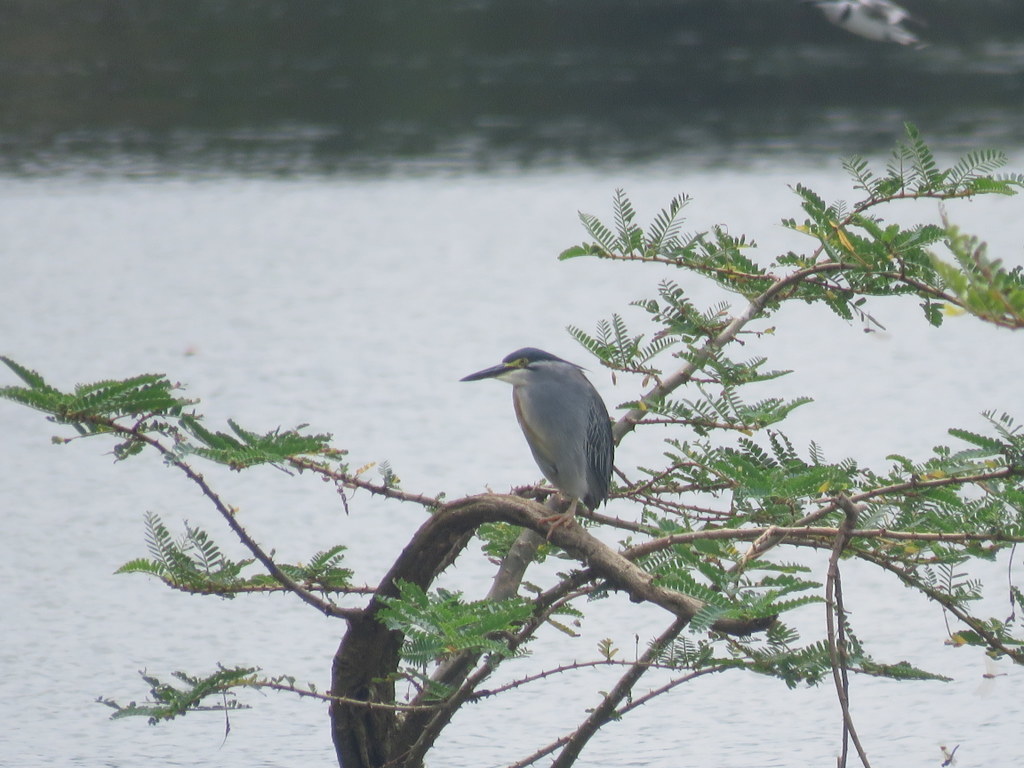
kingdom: Animalia
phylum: Chordata
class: Aves
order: Pelecaniformes
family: Ardeidae
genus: Butorides
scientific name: Butorides striata
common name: Striated heron
